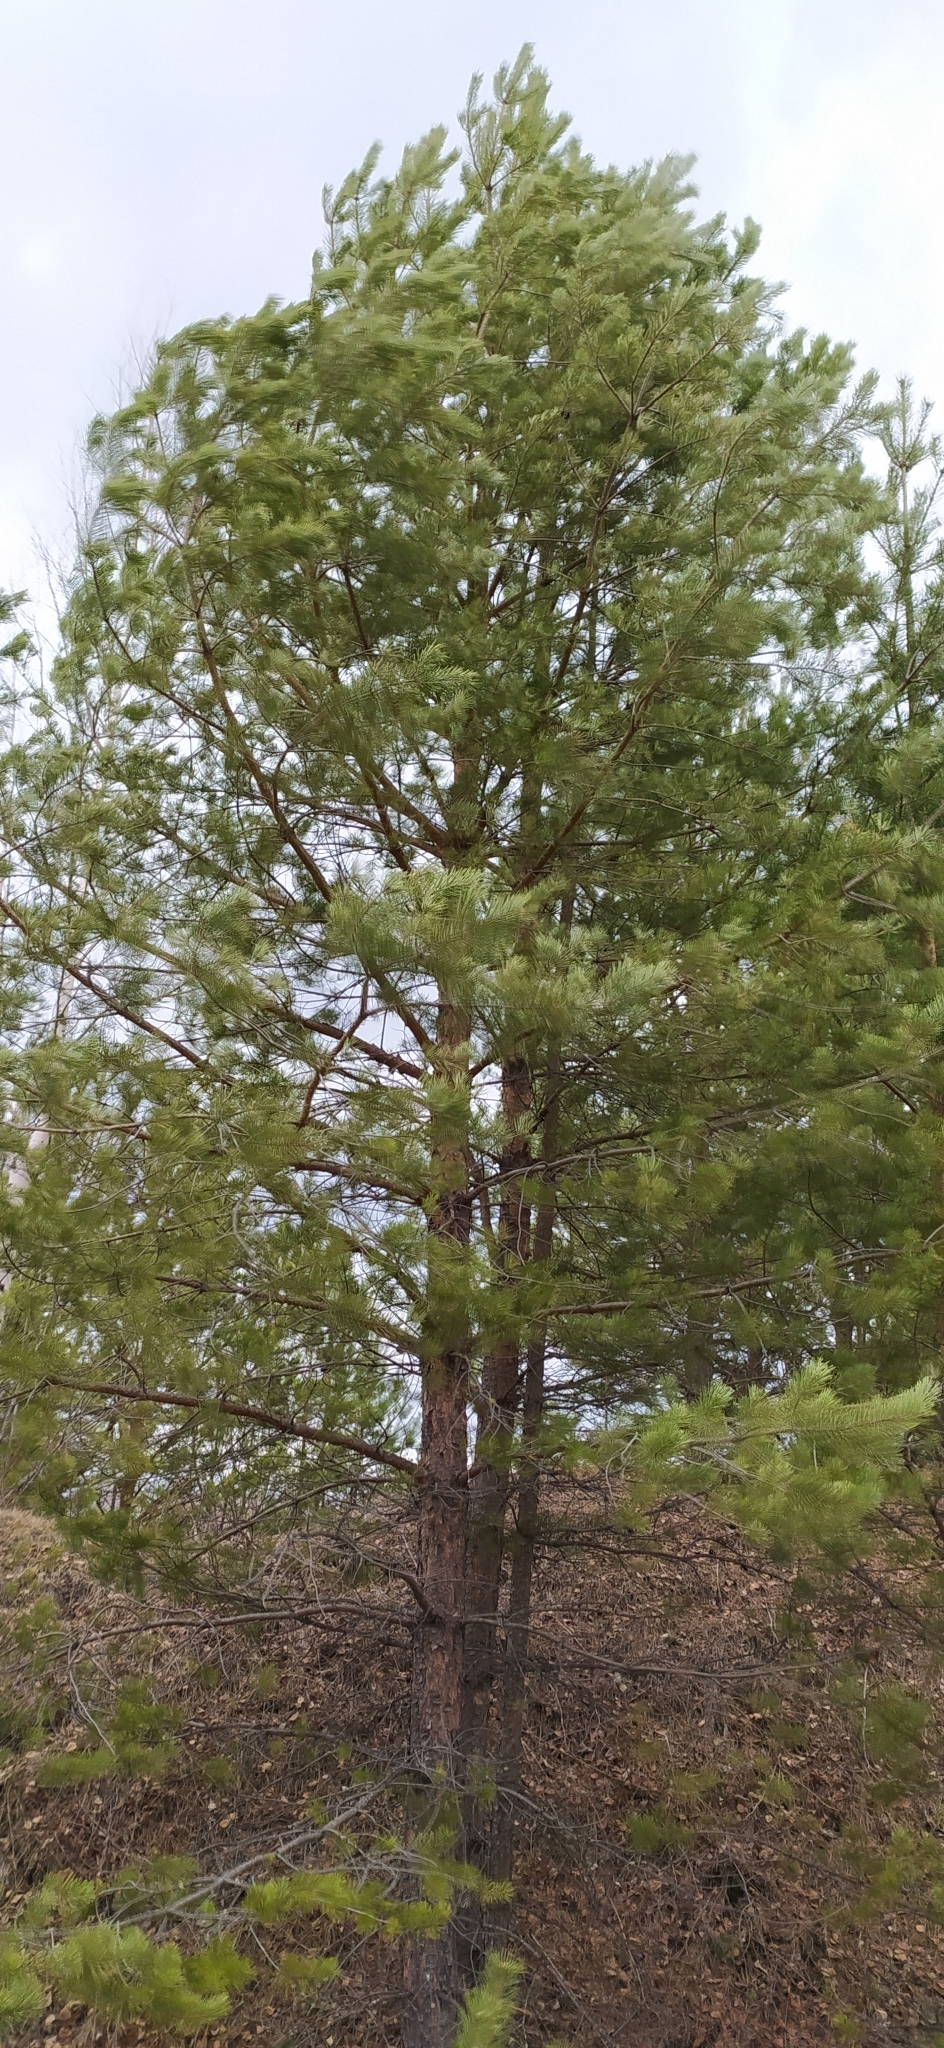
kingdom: Plantae
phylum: Tracheophyta
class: Pinopsida
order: Pinales
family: Pinaceae
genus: Pinus
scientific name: Pinus sylvestris
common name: Scots pine
